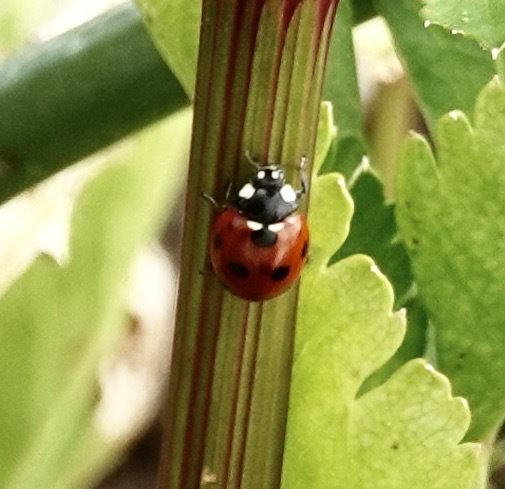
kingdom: Animalia
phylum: Arthropoda
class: Insecta
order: Coleoptera
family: Coccinellidae
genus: Coccinella
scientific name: Coccinella septempunctata
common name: Sevenspotted lady beetle
